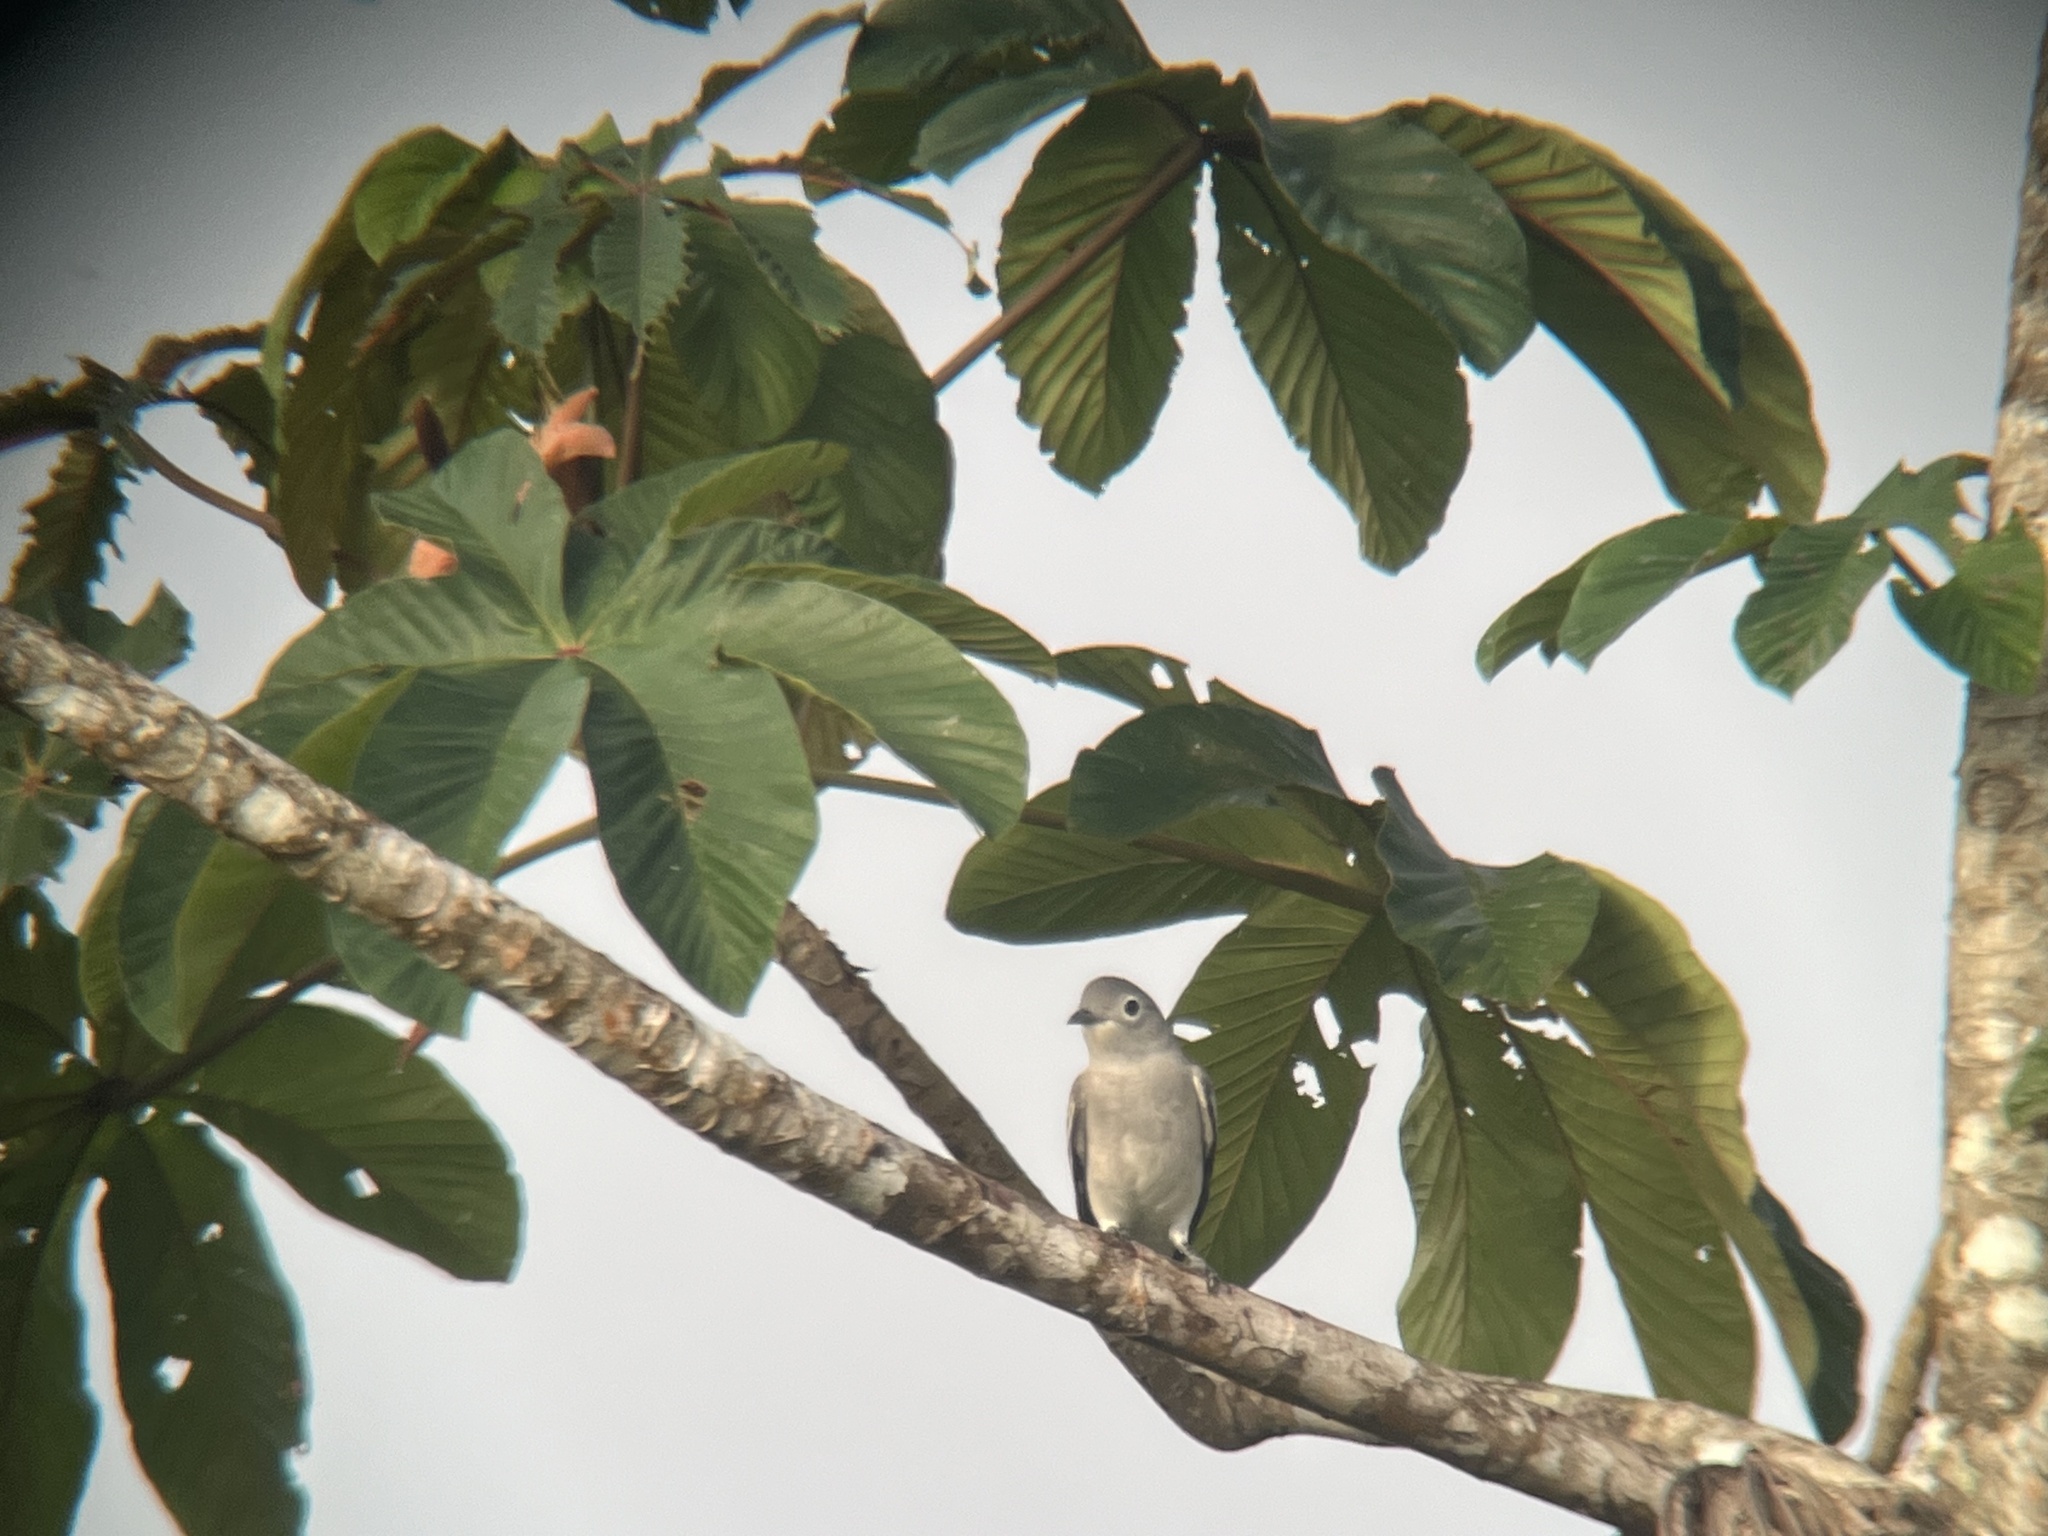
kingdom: Animalia
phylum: Chordata
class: Aves
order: Passeriformes
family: Cotingidae
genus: Carpodectes
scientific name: Carpodectes nitidus
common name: Snowy cotinga
